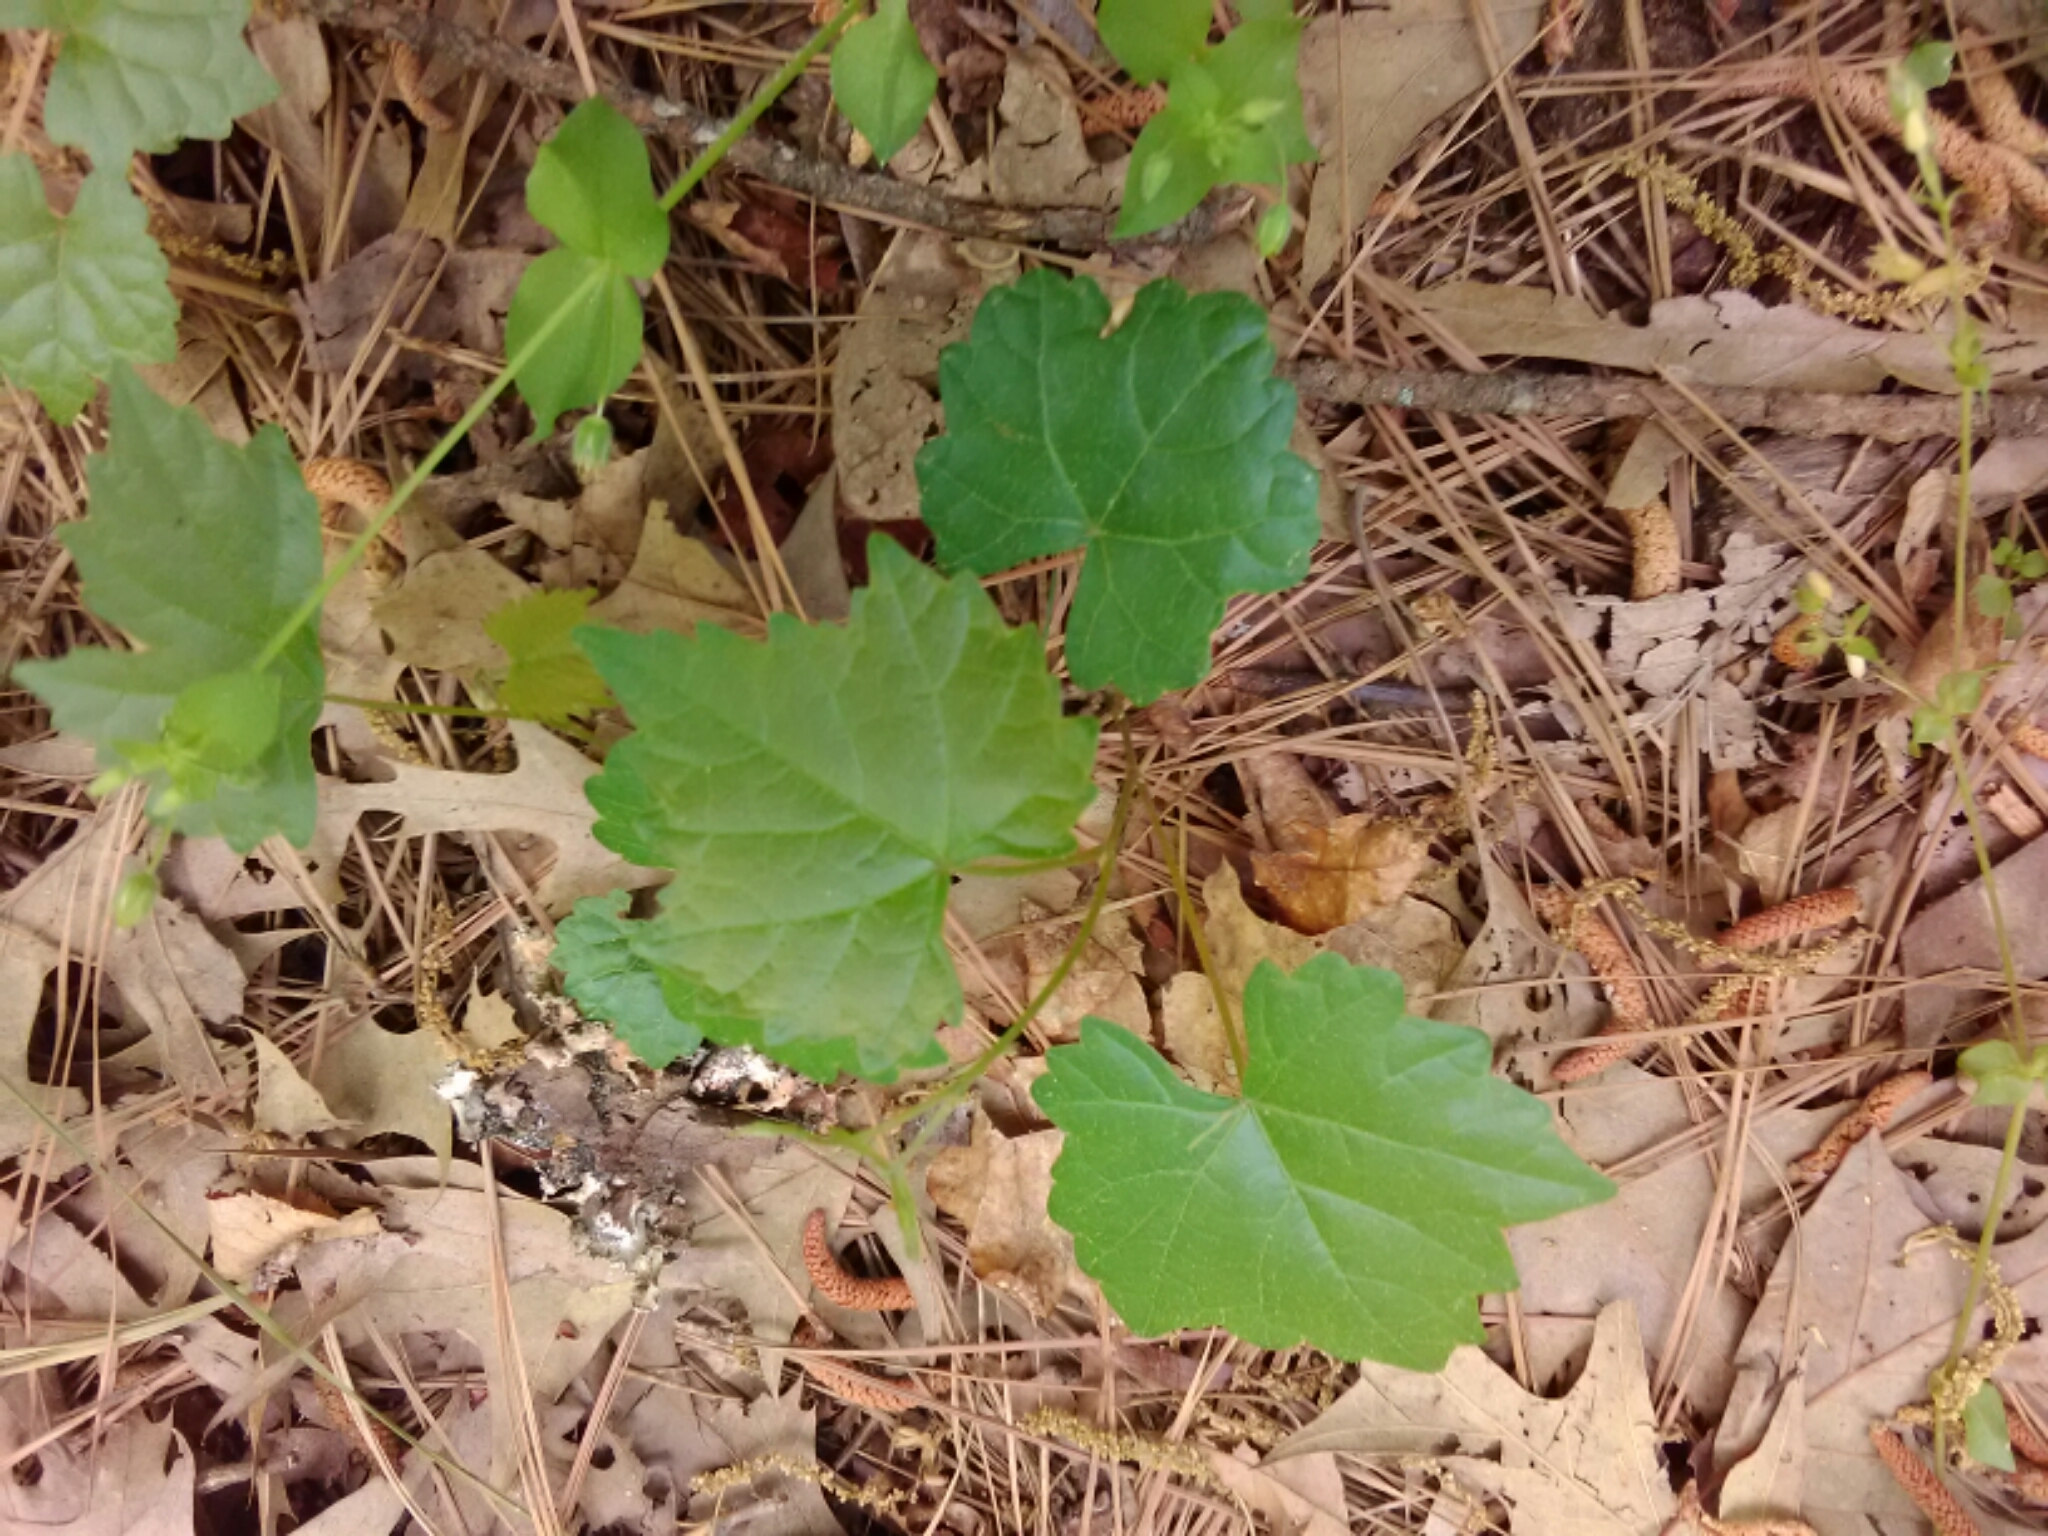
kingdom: Plantae
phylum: Tracheophyta
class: Magnoliopsida
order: Vitales
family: Vitaceae
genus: Vitis
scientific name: Vitis rotundifolia
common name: Muscadine grape
